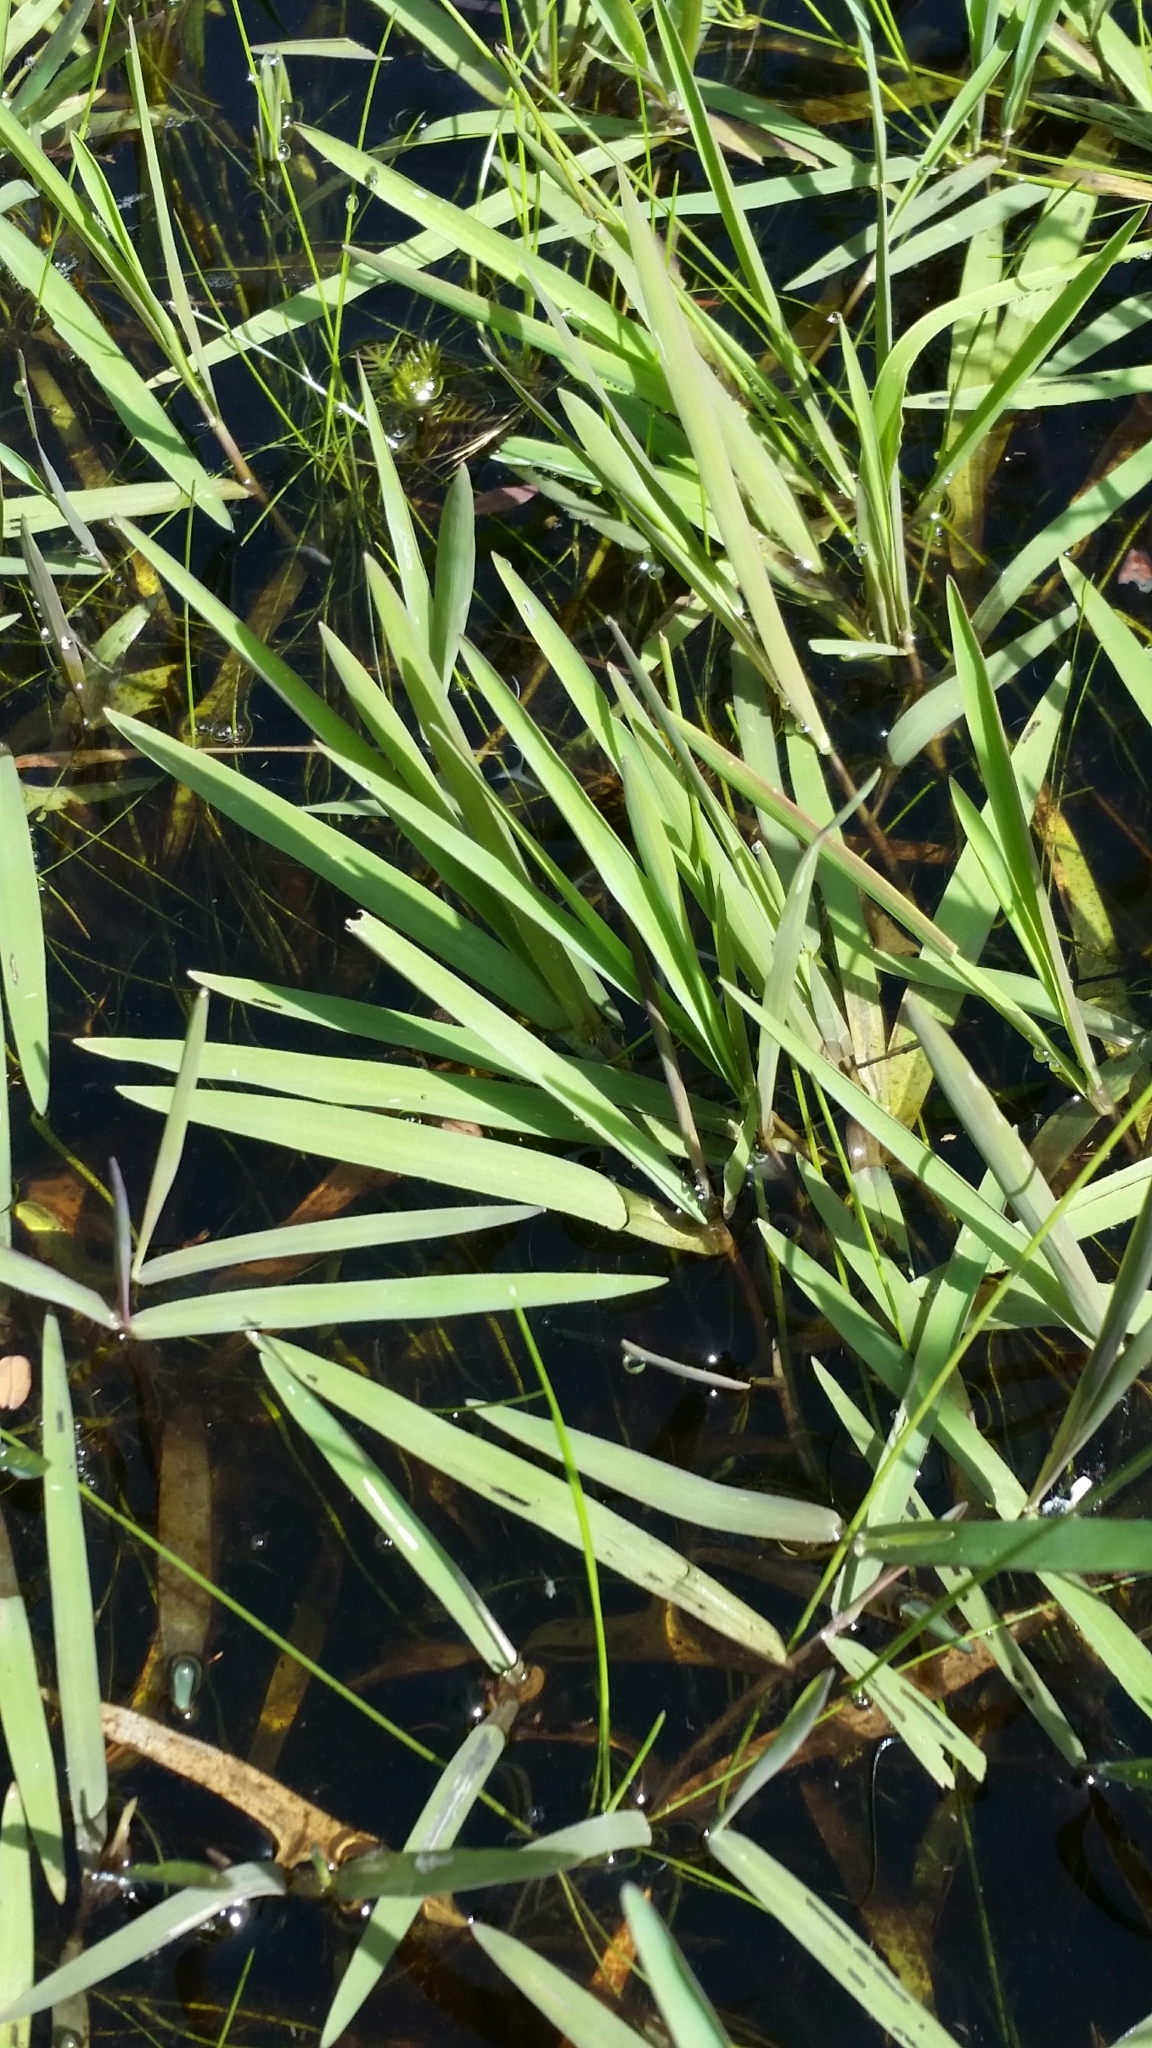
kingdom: Plantae
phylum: Tracheophyta
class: Liliopsida
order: Poales
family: Poaceae
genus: Luziola
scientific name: Luziola fluitans
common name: Silverleaf grass
